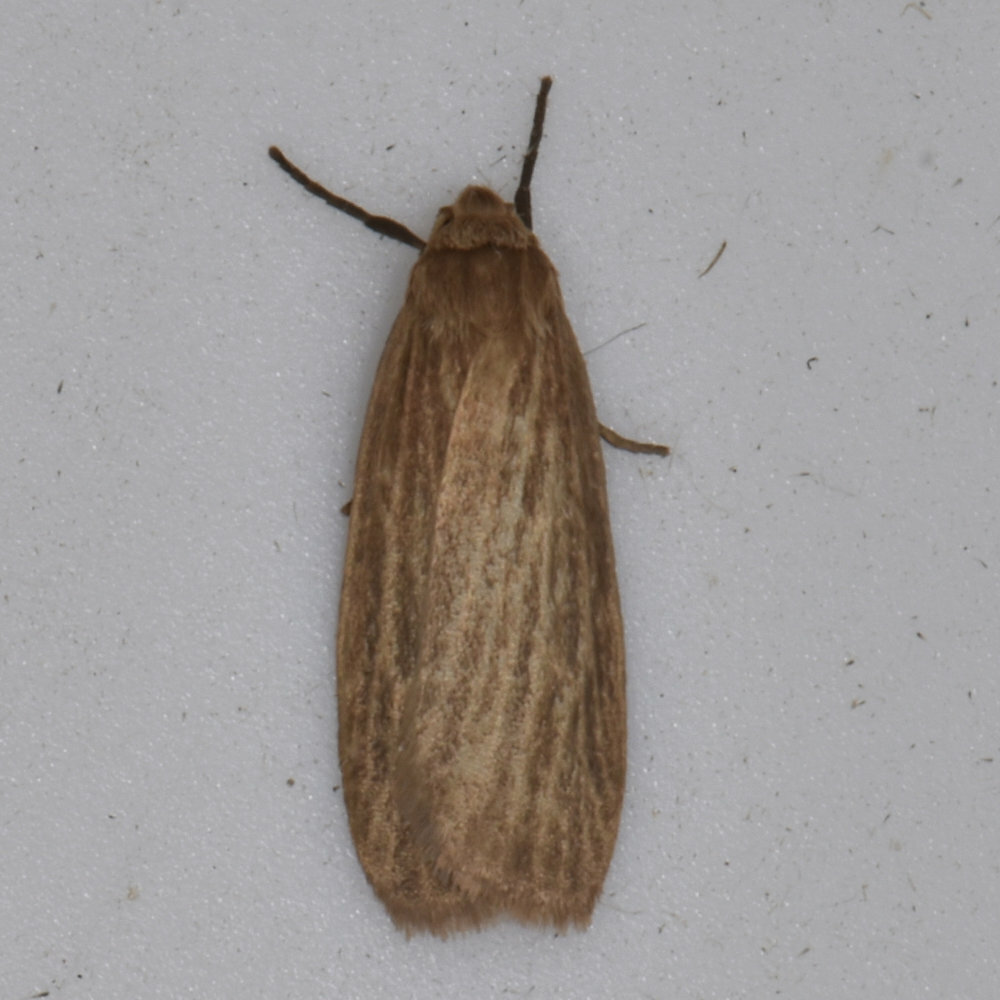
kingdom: Animalia
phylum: Arthropoda
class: Insecta
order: Lepidoptera
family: Erebidae
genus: Crambidia
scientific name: Crambidia pallida
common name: Pale lichen moth
